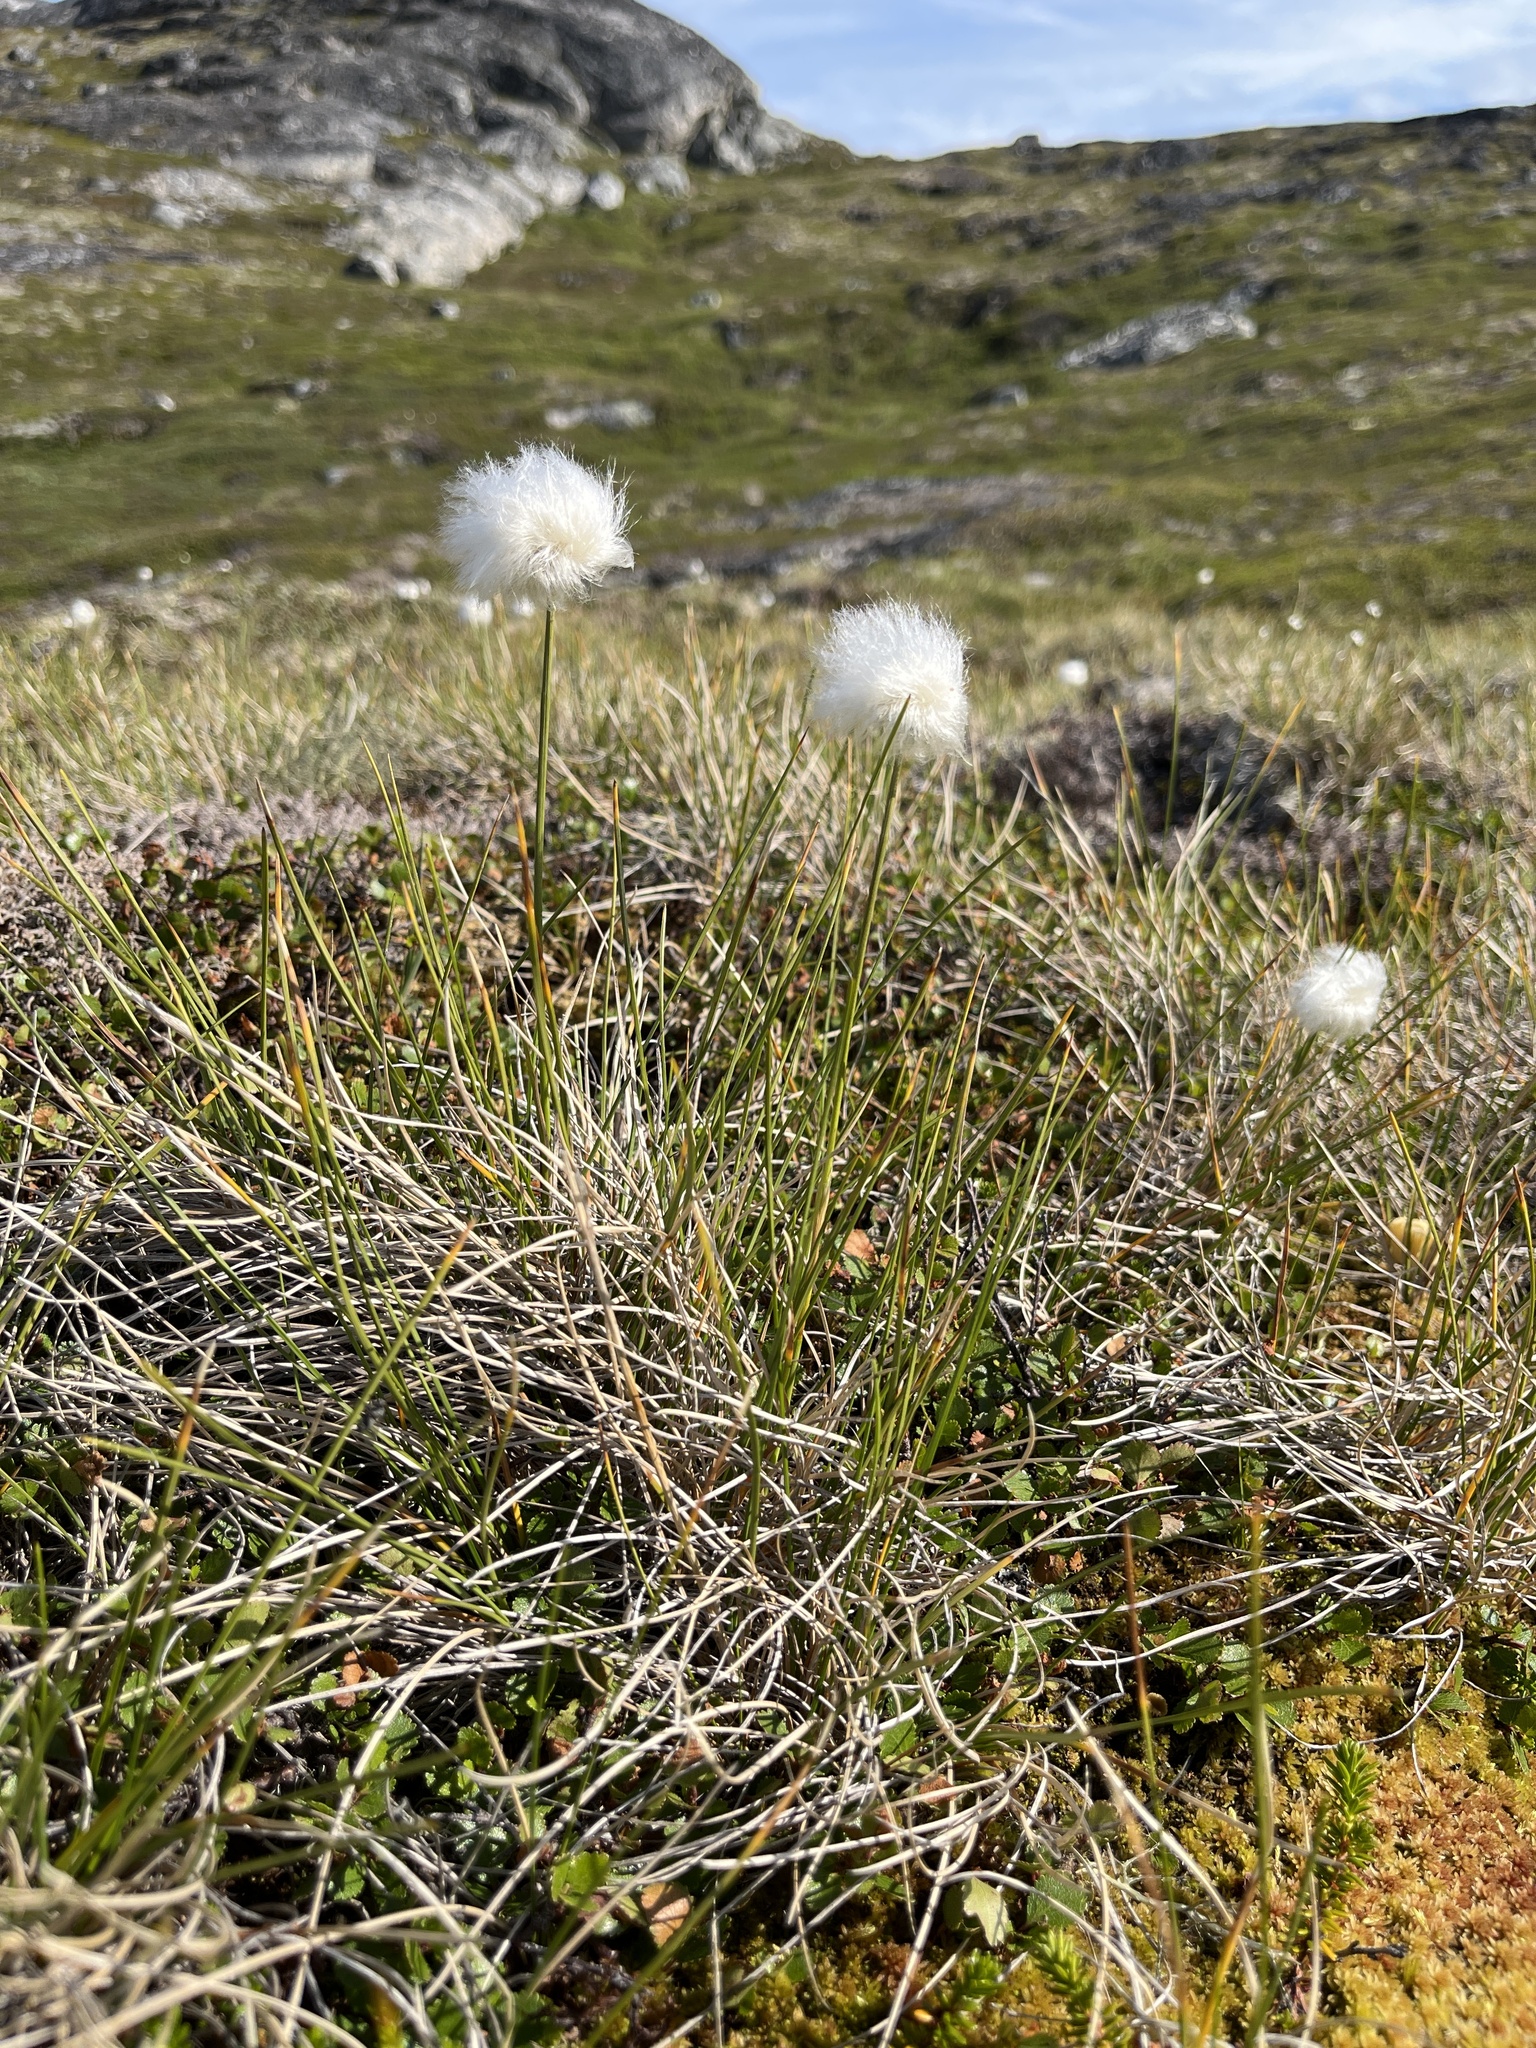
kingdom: Plantae
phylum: Tracheophyta
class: Liliopsida
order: Poales
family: Cyperaceae
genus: Eriophorum
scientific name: Eriophorum vaginatum
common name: Hare's-tail cottongrass
